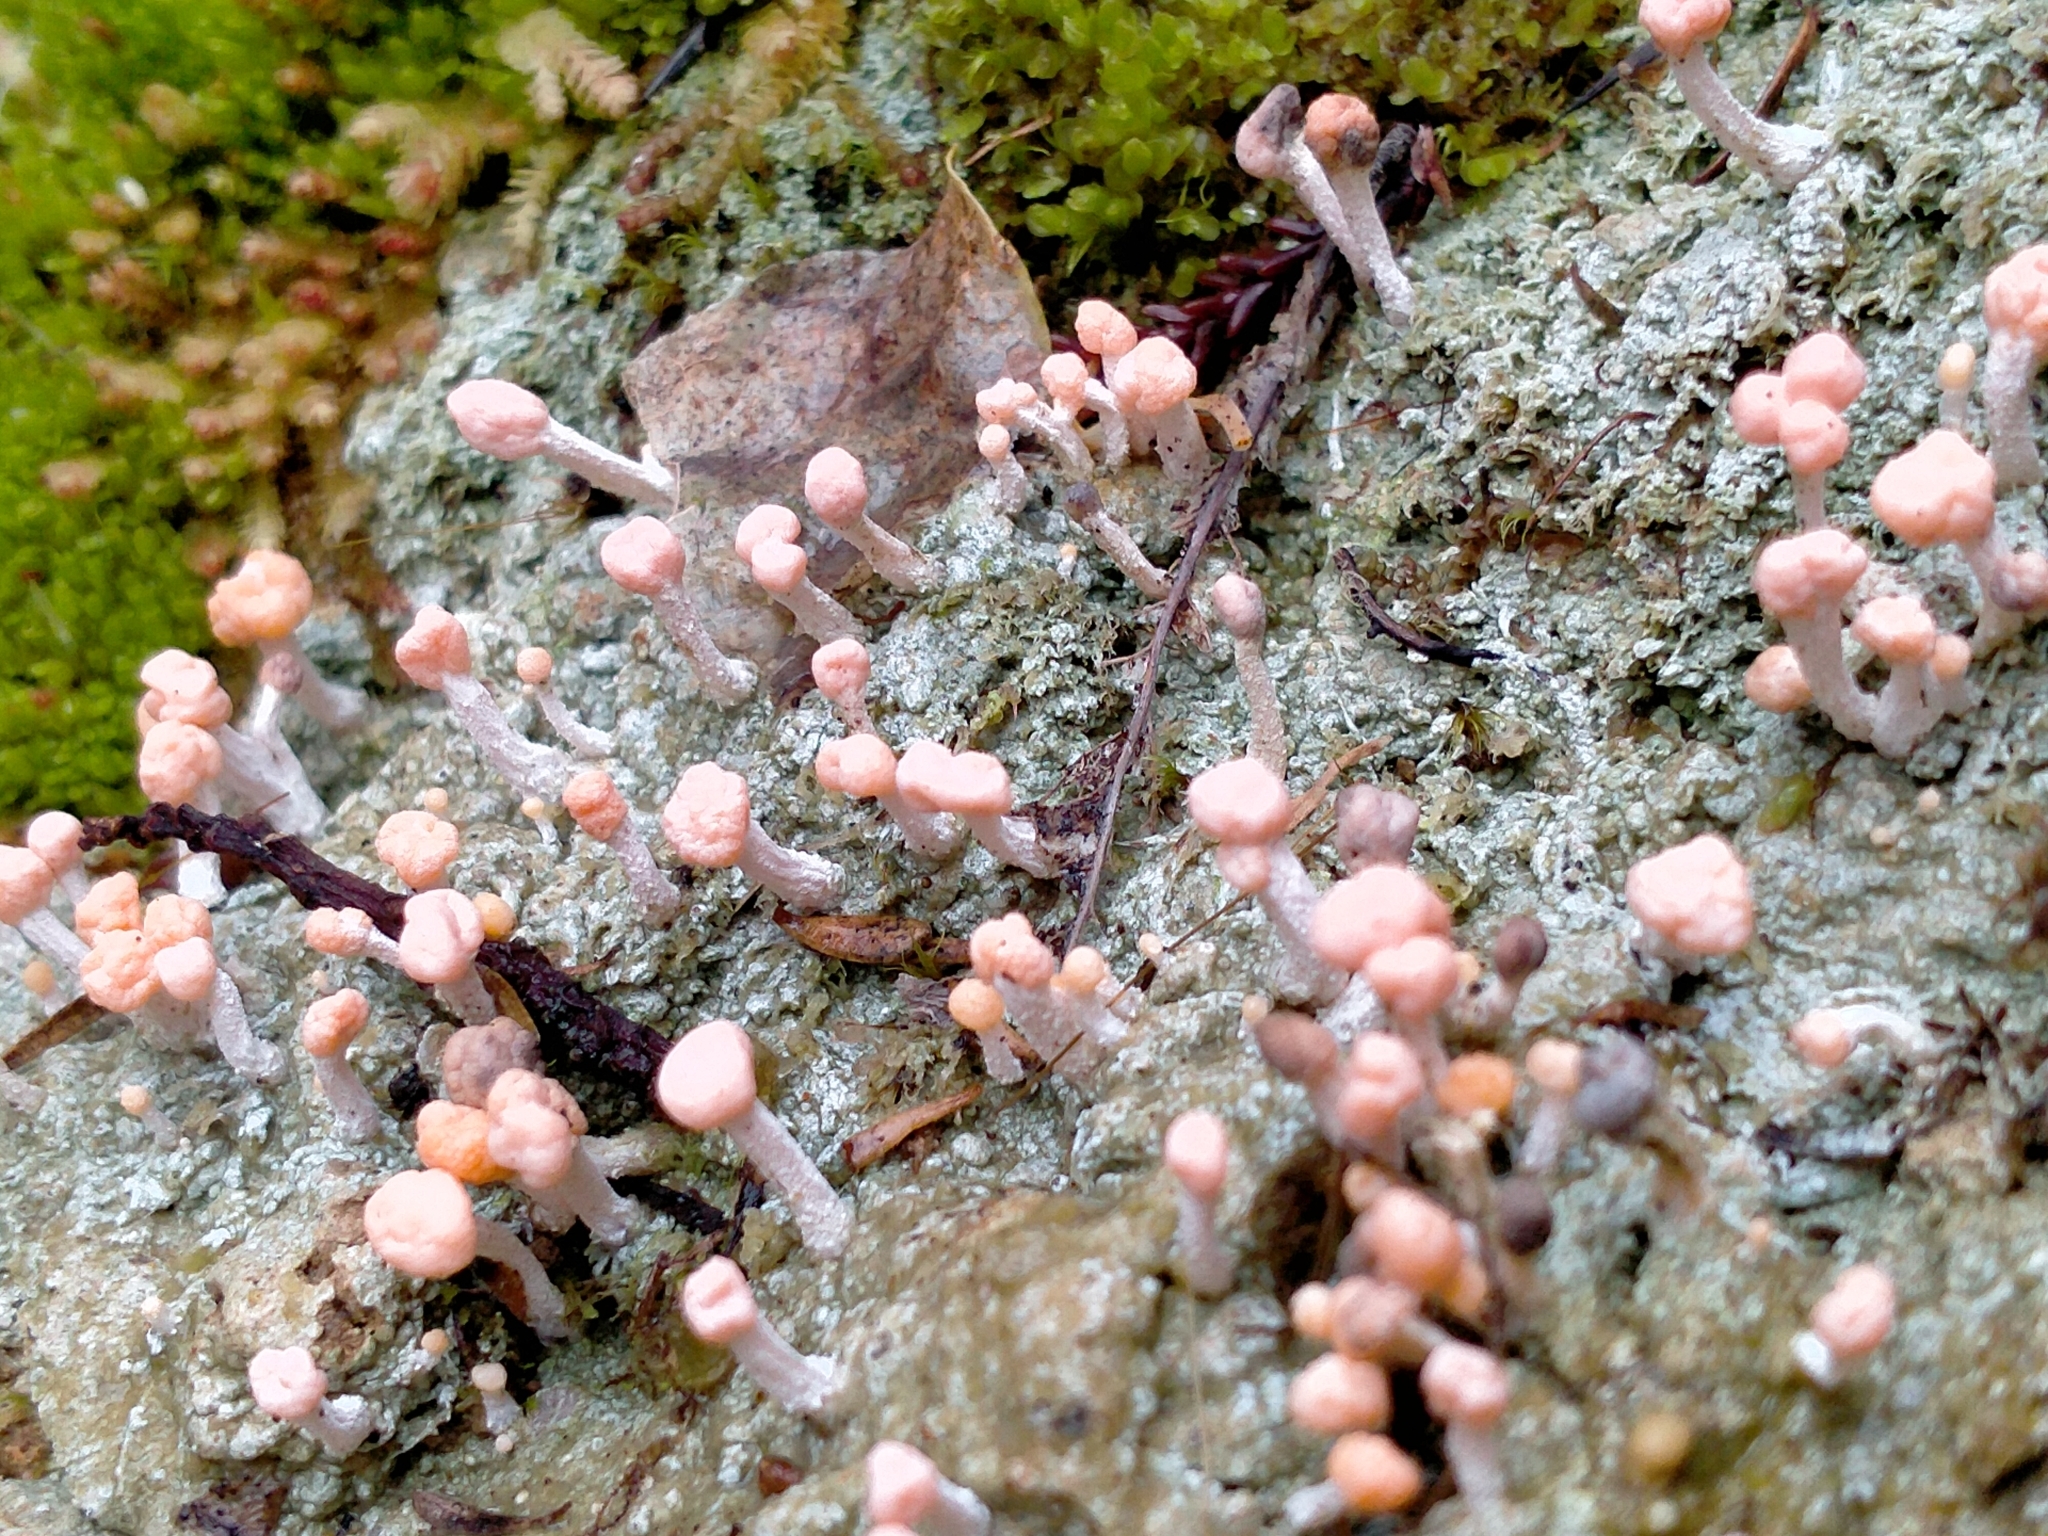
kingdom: Fungi
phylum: Ascomycota
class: Lecanoromycetes
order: Pertusariales
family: Icmadophilaceae
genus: Dibaeis
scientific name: Dibaeis arcuata
